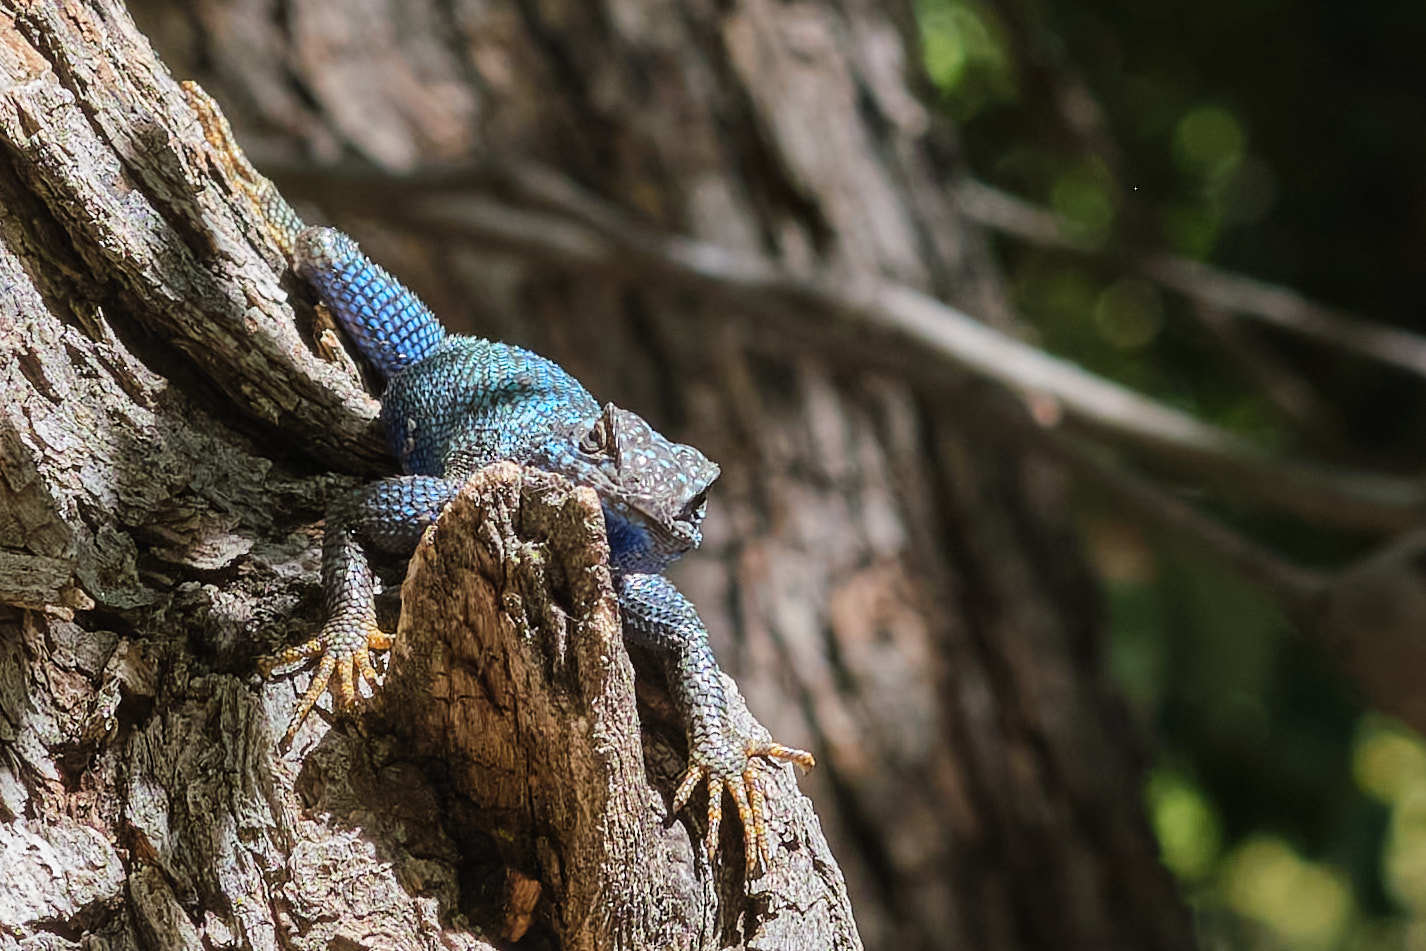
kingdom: Animalia
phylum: Chordata
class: Squamata
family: Phrynosomatidae
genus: Sceloporus
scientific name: Sceloporus occidentalis
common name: Western fence lizard
